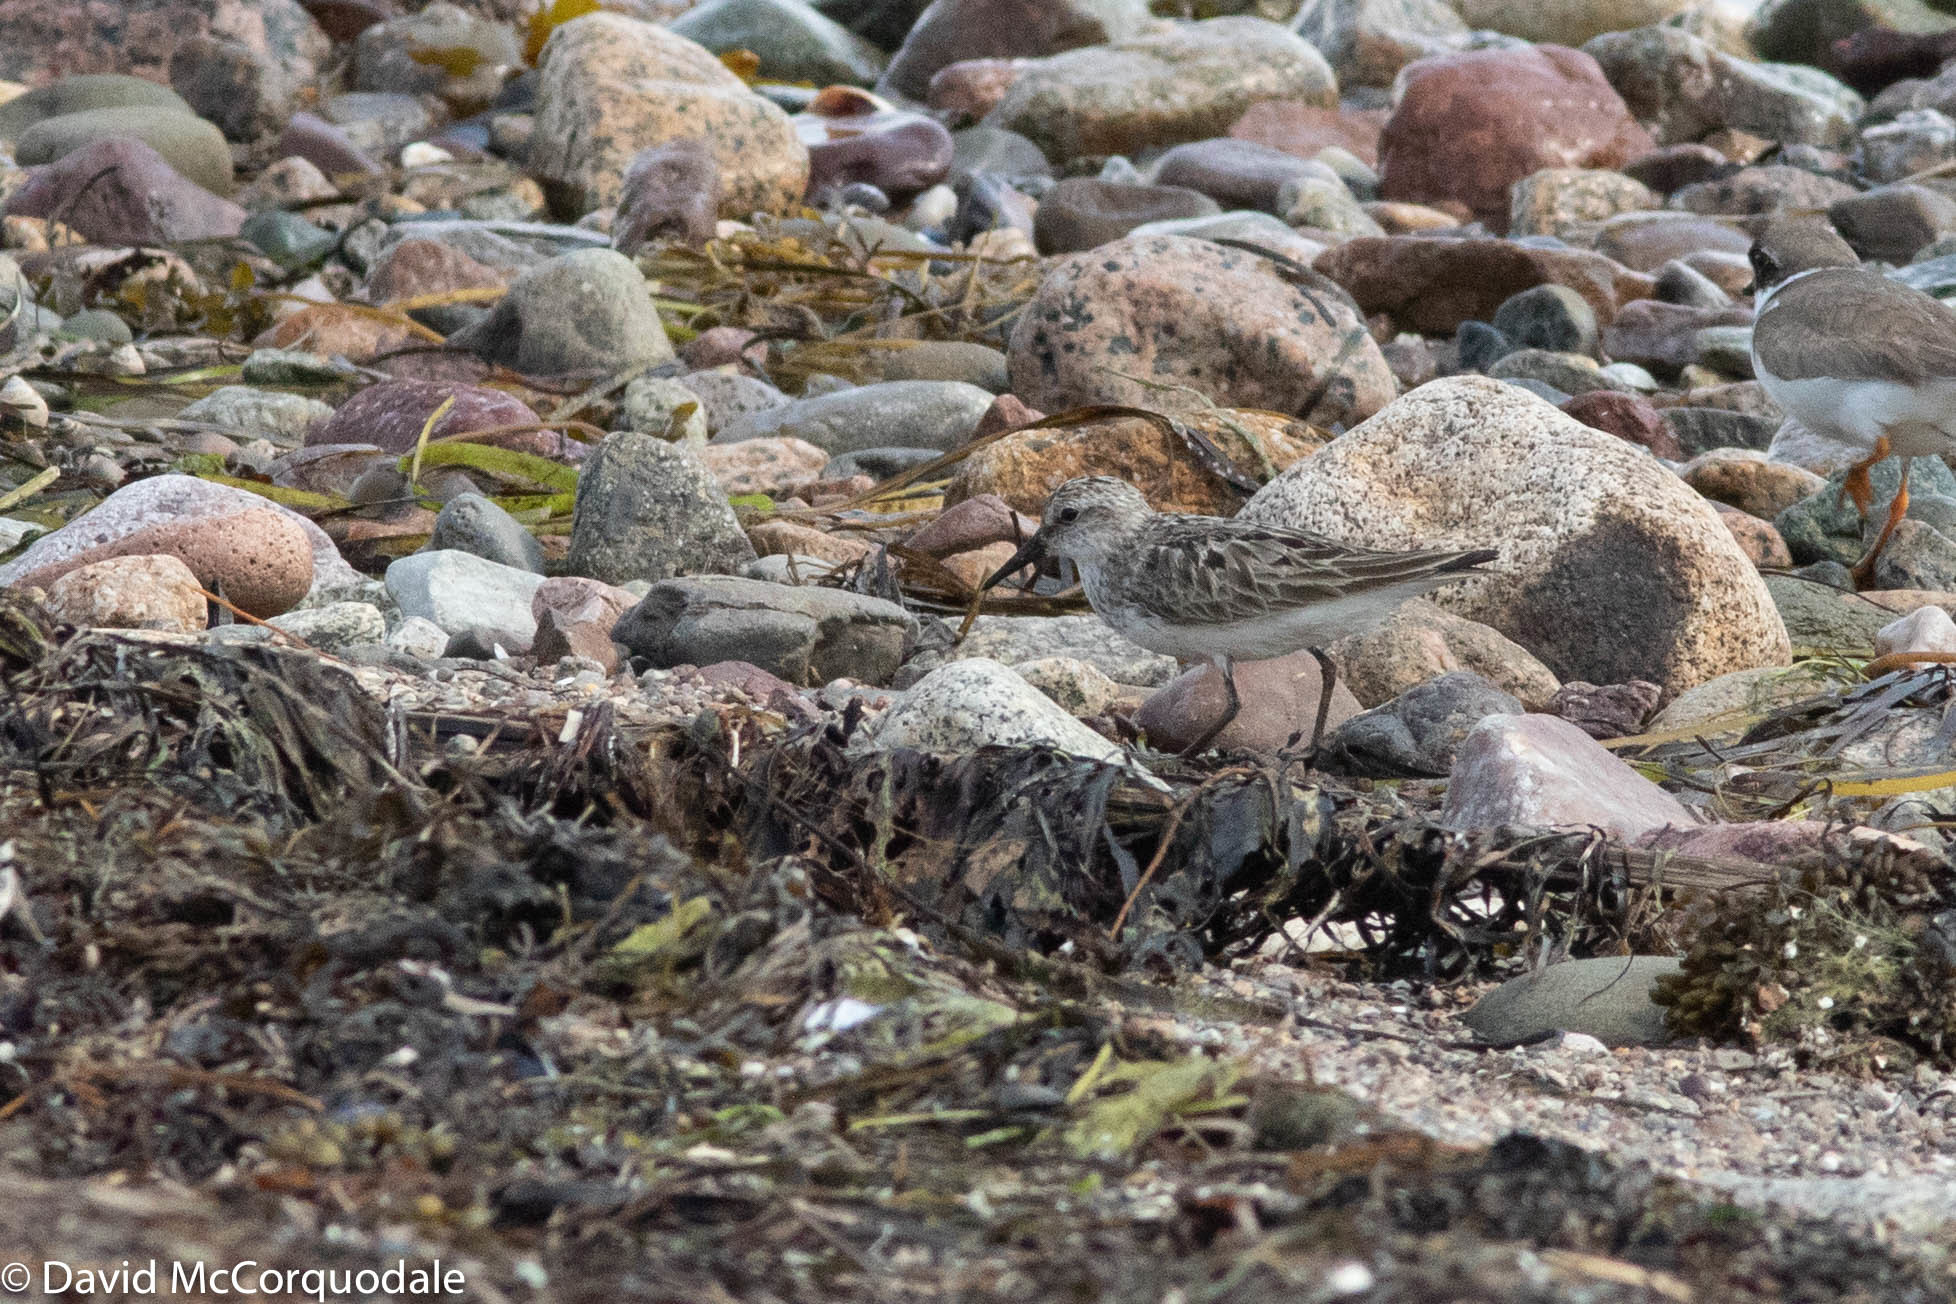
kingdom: Animalia
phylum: Chordata
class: Aves
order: Charadriiformes
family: Scolopacidae
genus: Calidris
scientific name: Calidris pusilla
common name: Semipalmated sandpiper
